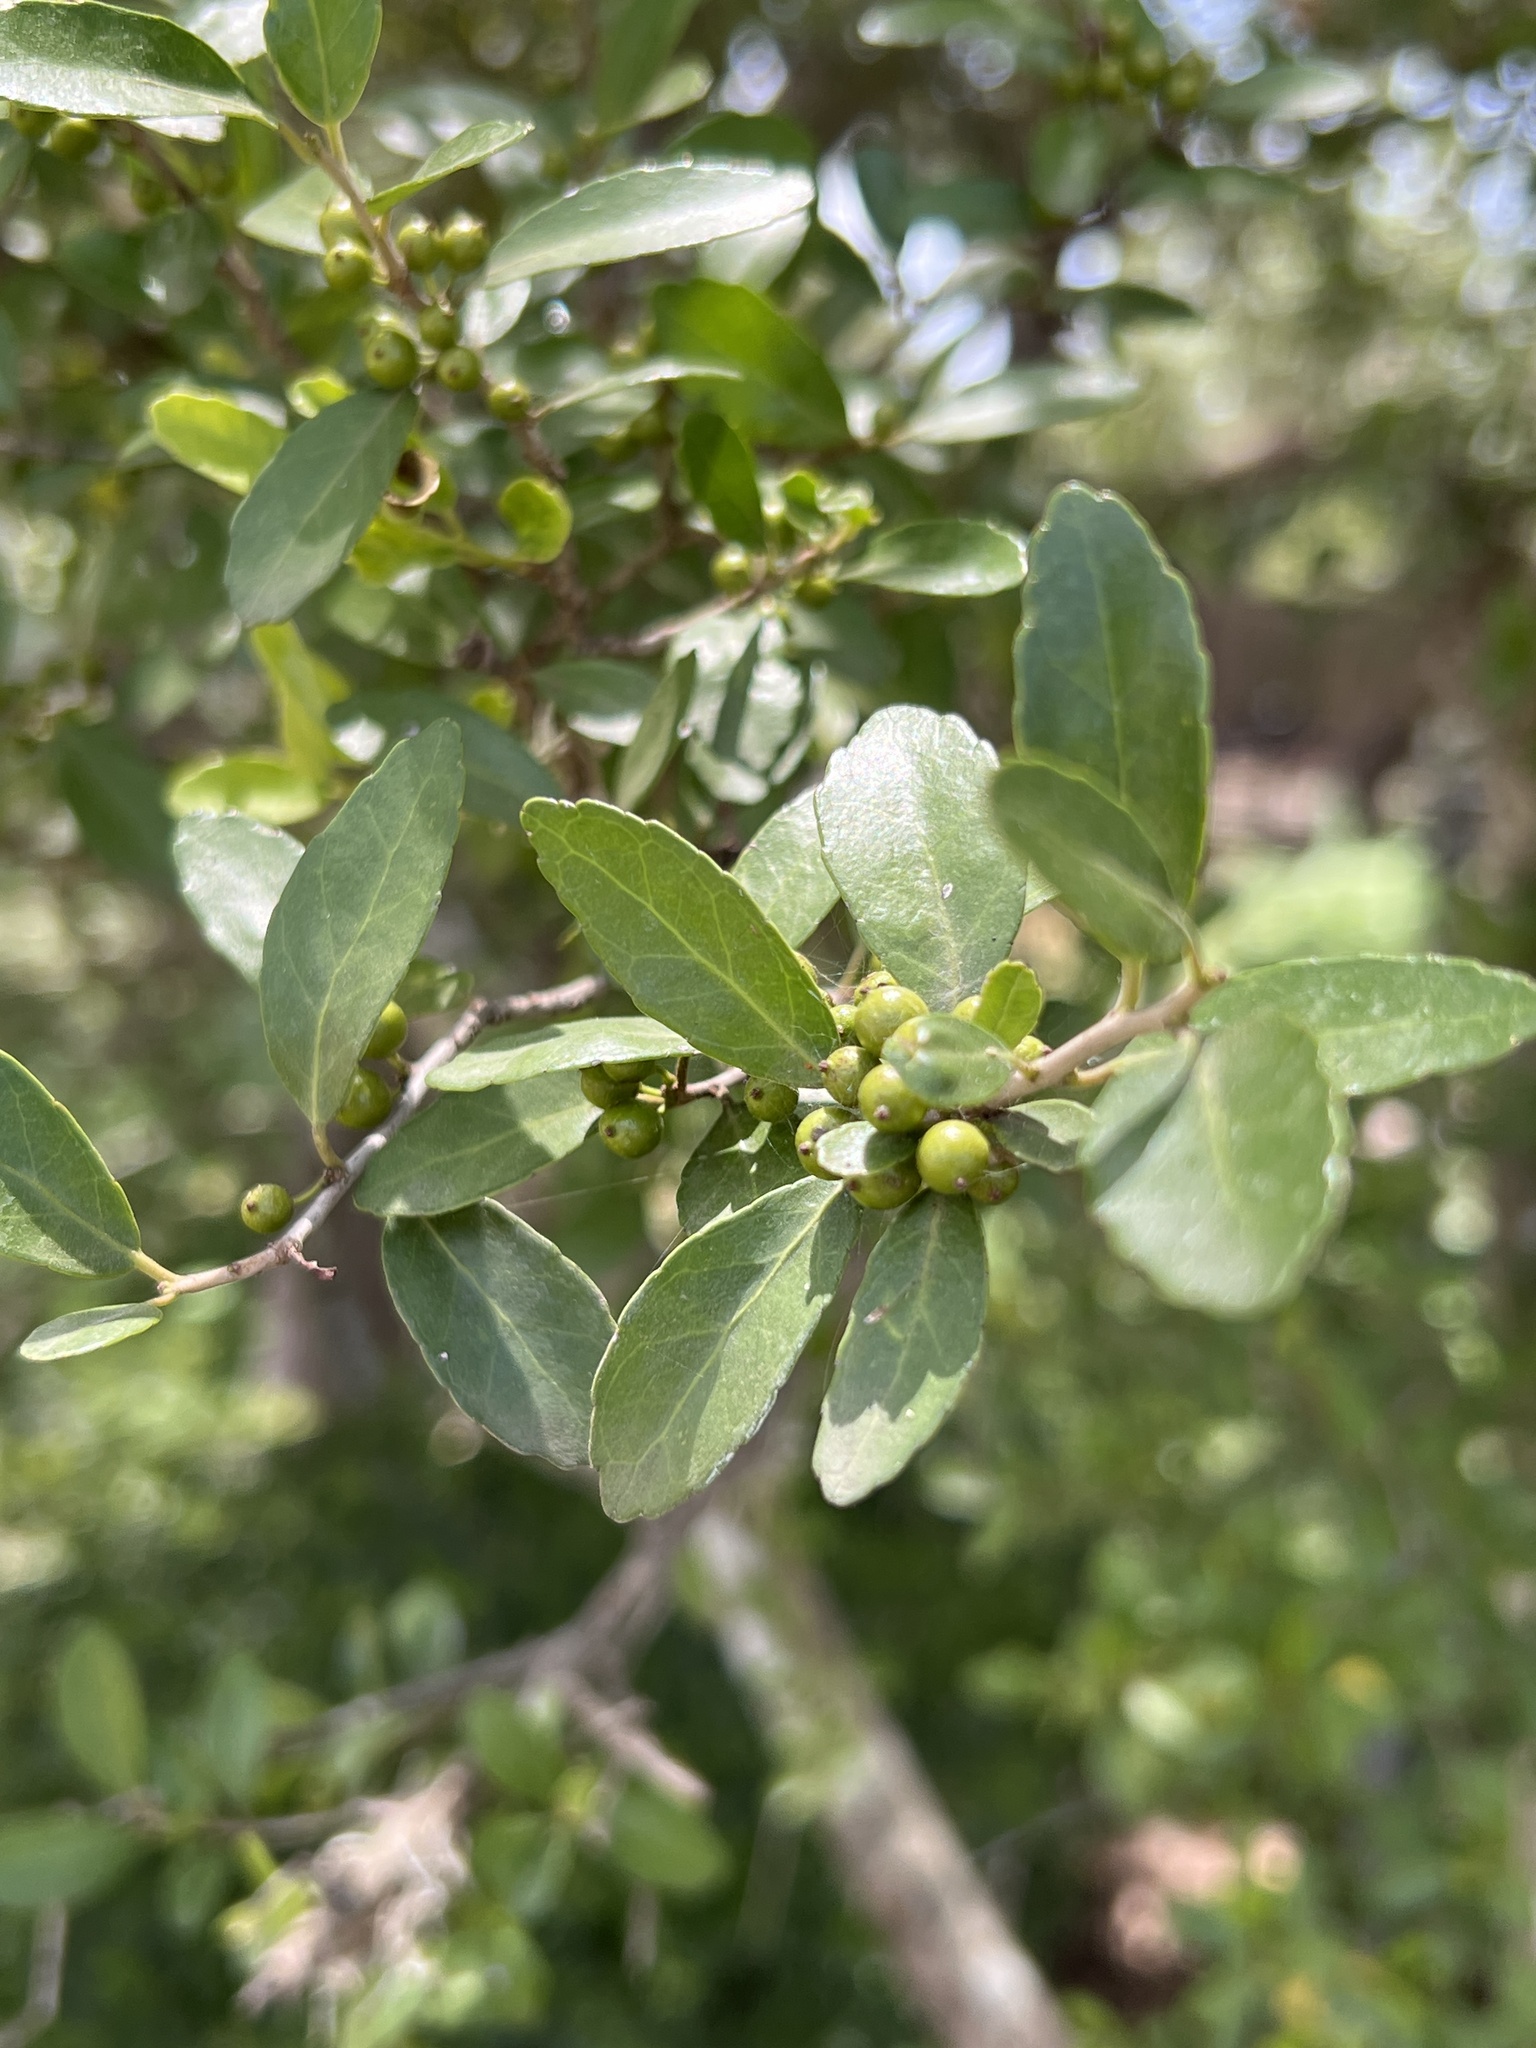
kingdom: Plantae
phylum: Tracheophyta
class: Magnoliopsida
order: Aquifoliales
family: Aquifoliaceae
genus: Ilex
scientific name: Ilex vomitoria
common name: Yaupon holly
